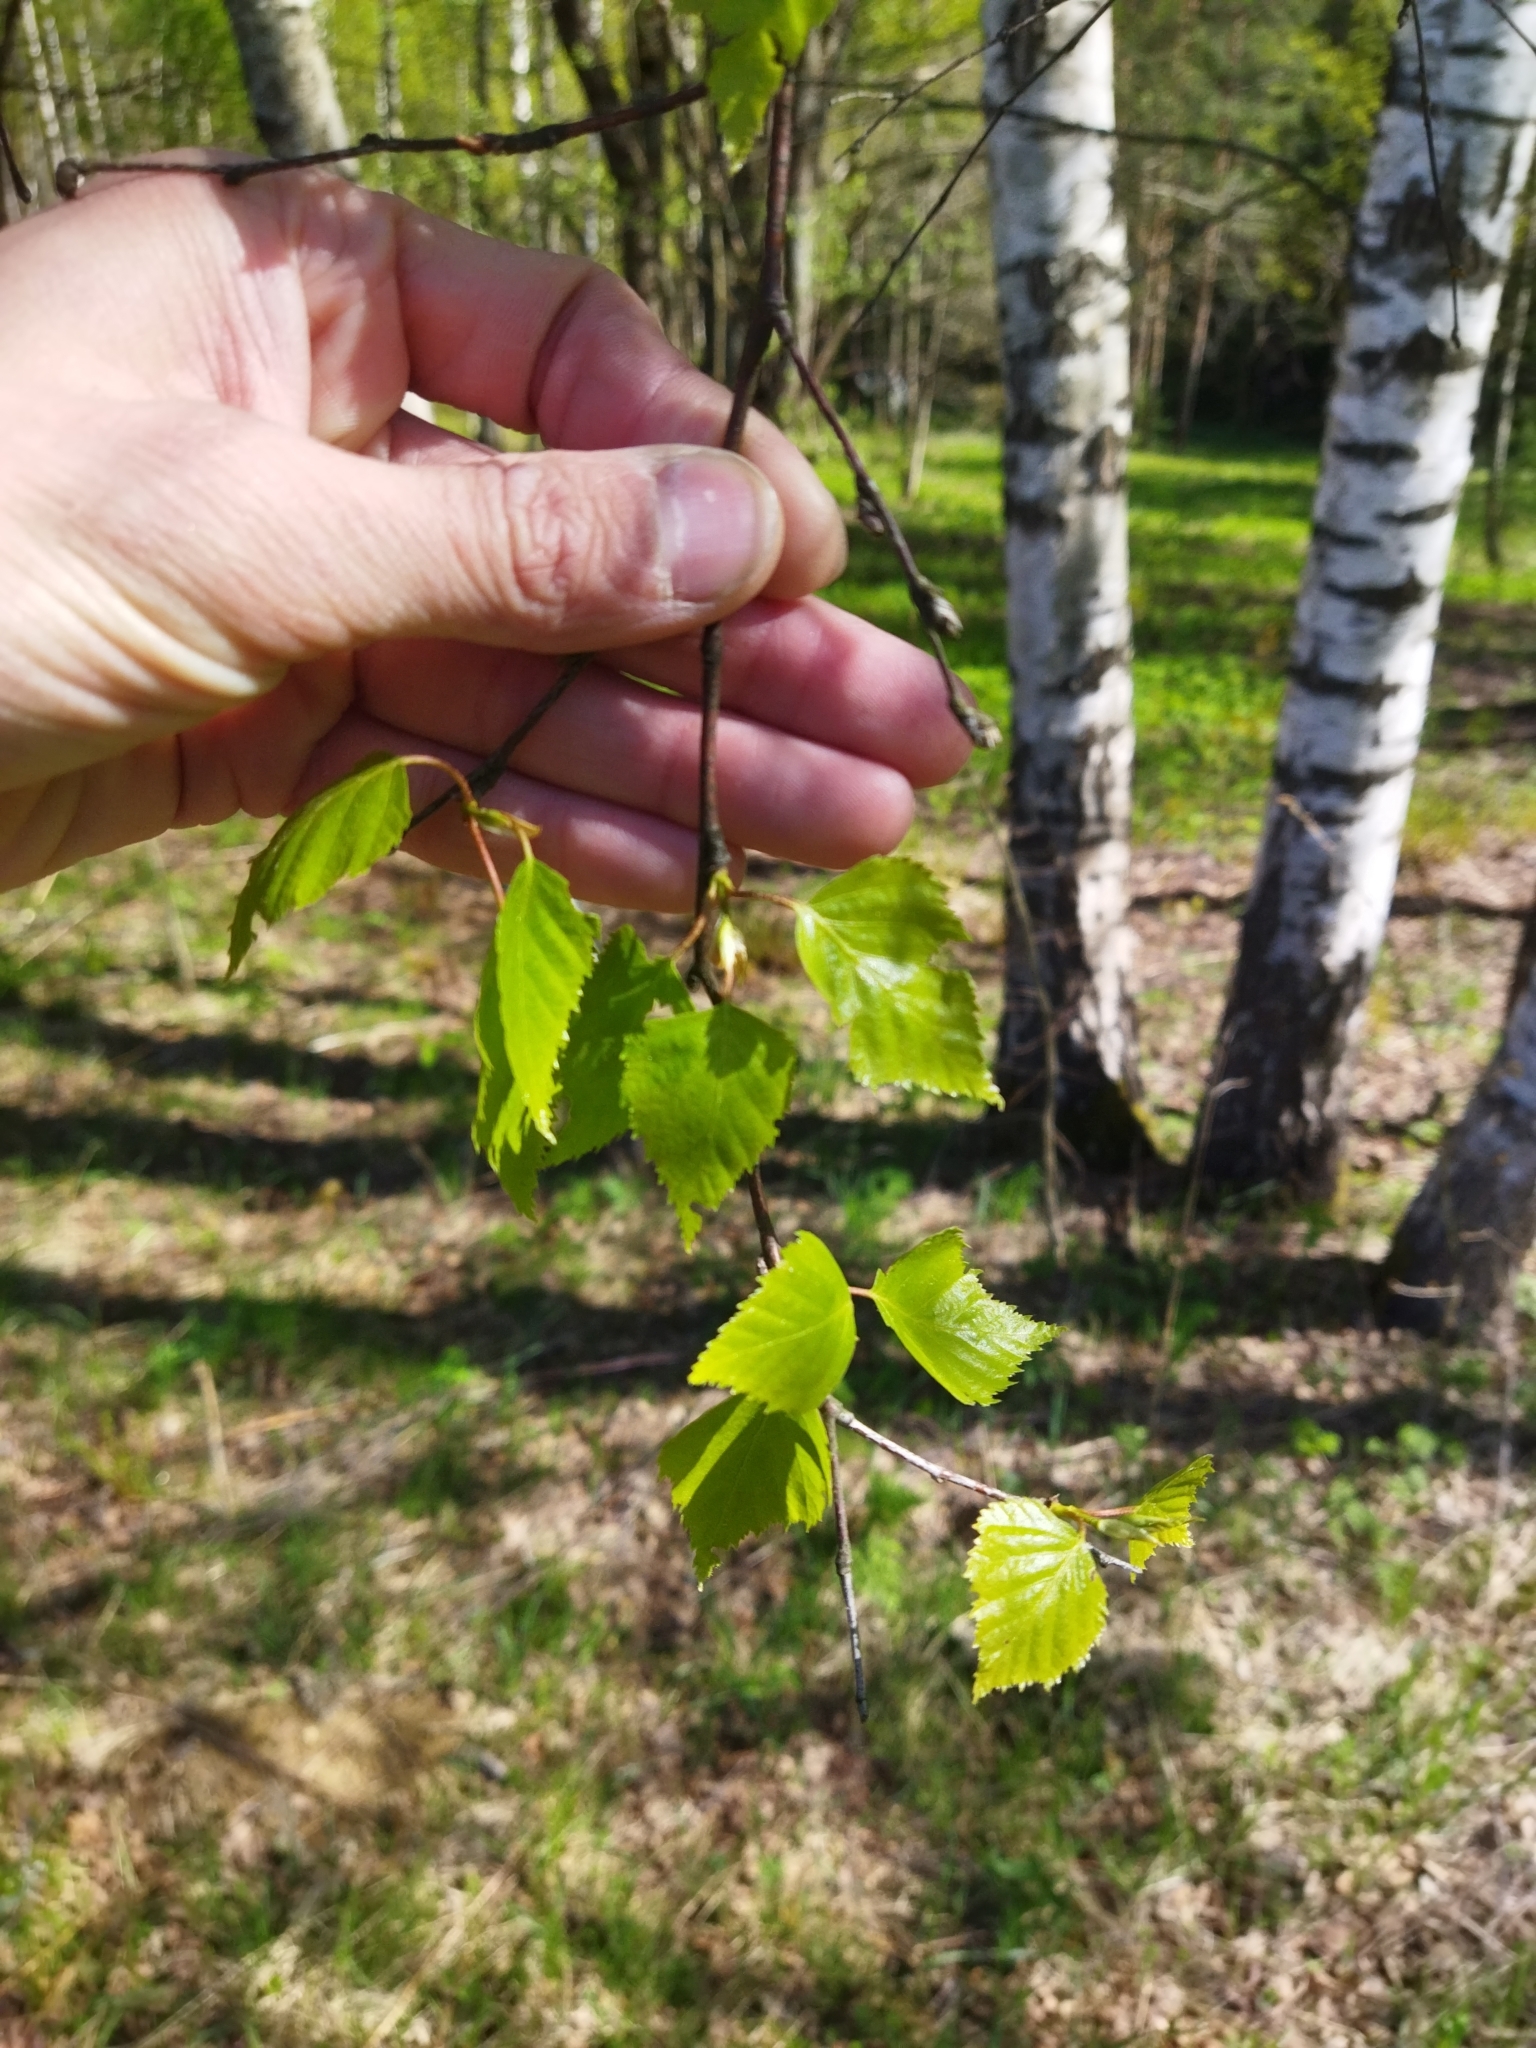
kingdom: Plantae
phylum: Tracheophyta
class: Magnoliopsida
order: Fagales
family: Betulaceae
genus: Betula
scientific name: Betula pendula
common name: Silver birch
